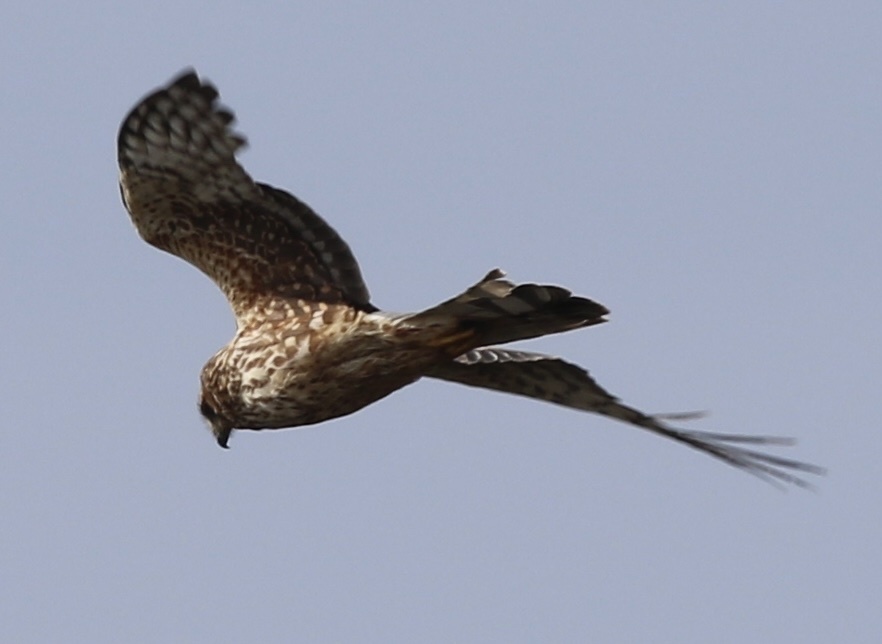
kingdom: Animalia
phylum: Chordata
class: Aves
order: Accipitriformes
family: Accipitridae
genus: Circus
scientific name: Circus cyaneus
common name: Hen harrier
